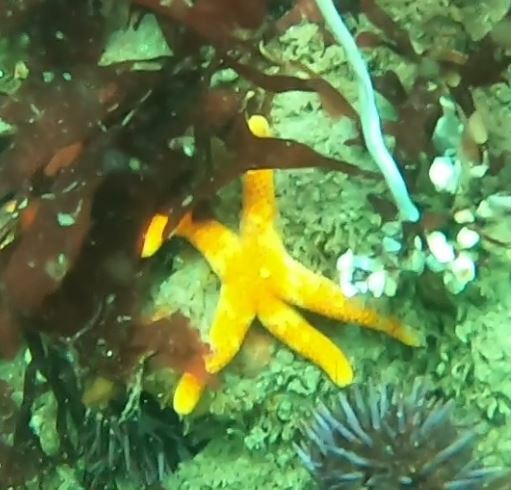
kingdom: Animalia
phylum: Echinodermata
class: Asteroidea
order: Spinulosida
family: Echinasteridae
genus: Henricia
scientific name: Henricia pumila
